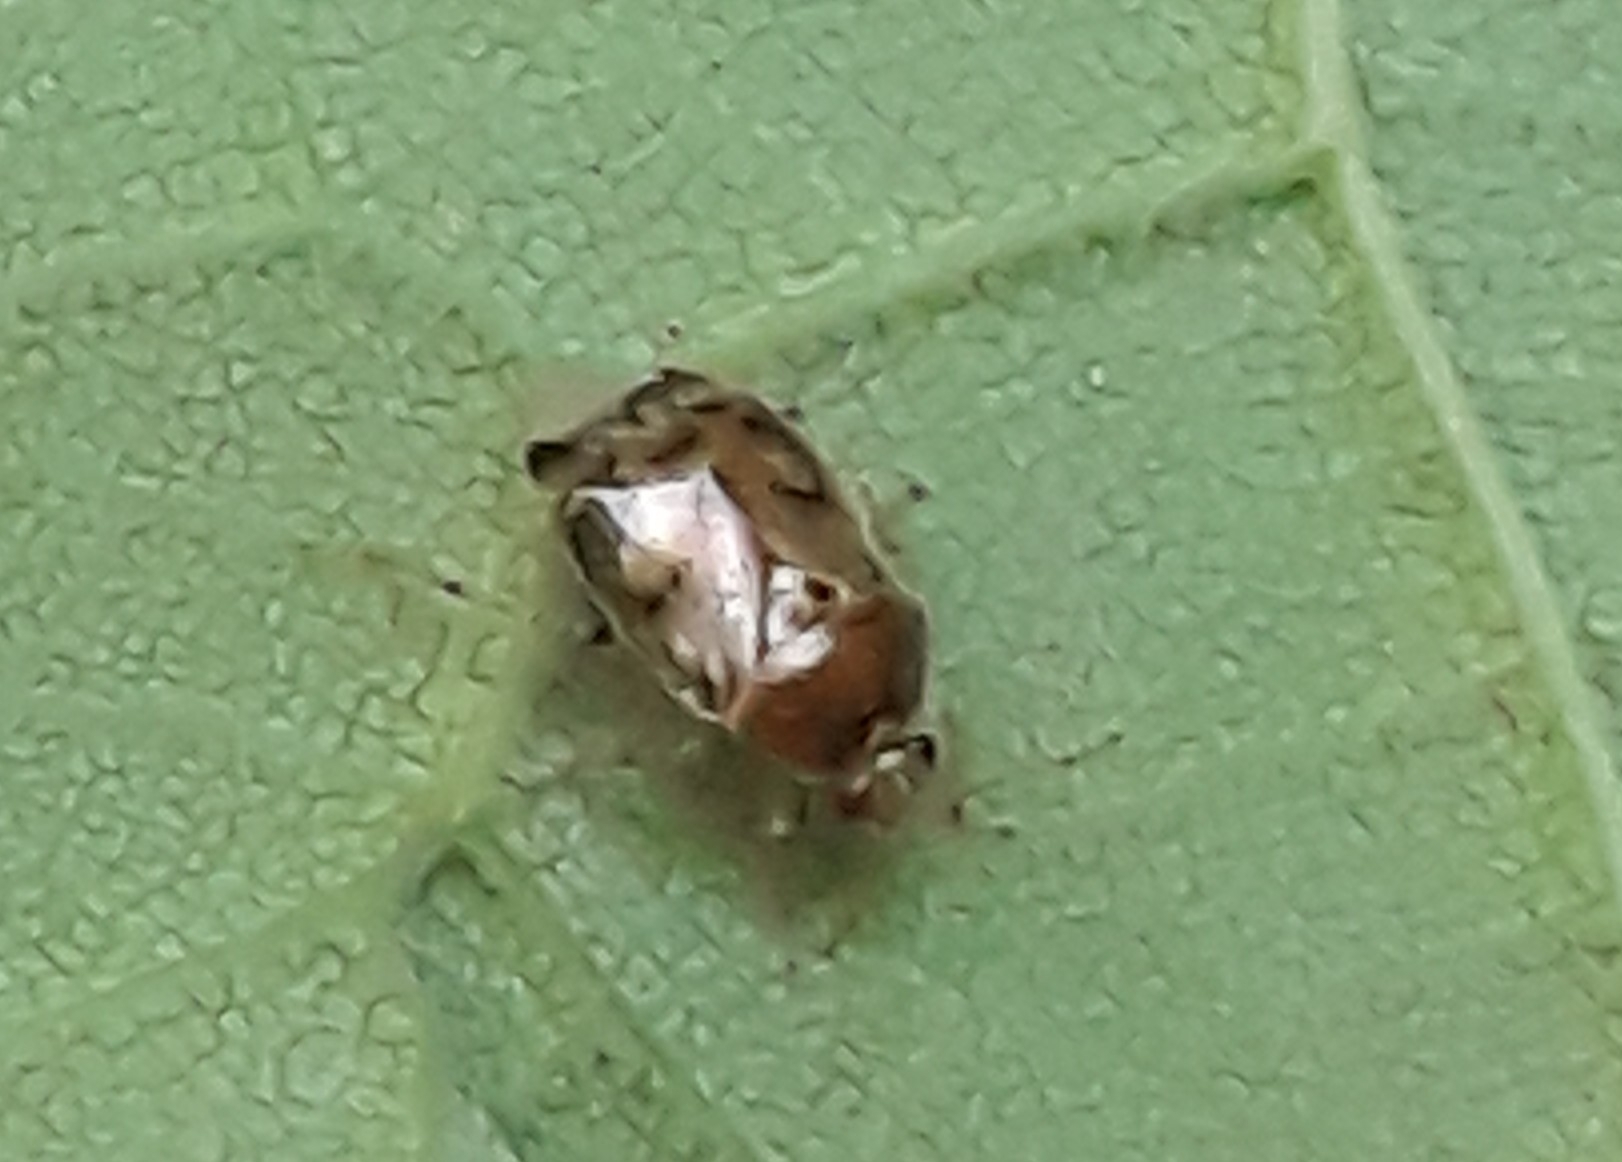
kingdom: Animalia
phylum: Arthropoda
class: Insecta
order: Hemiptera
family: Miridae
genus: Deraeocoris
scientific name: Deraeocoris lutescens
